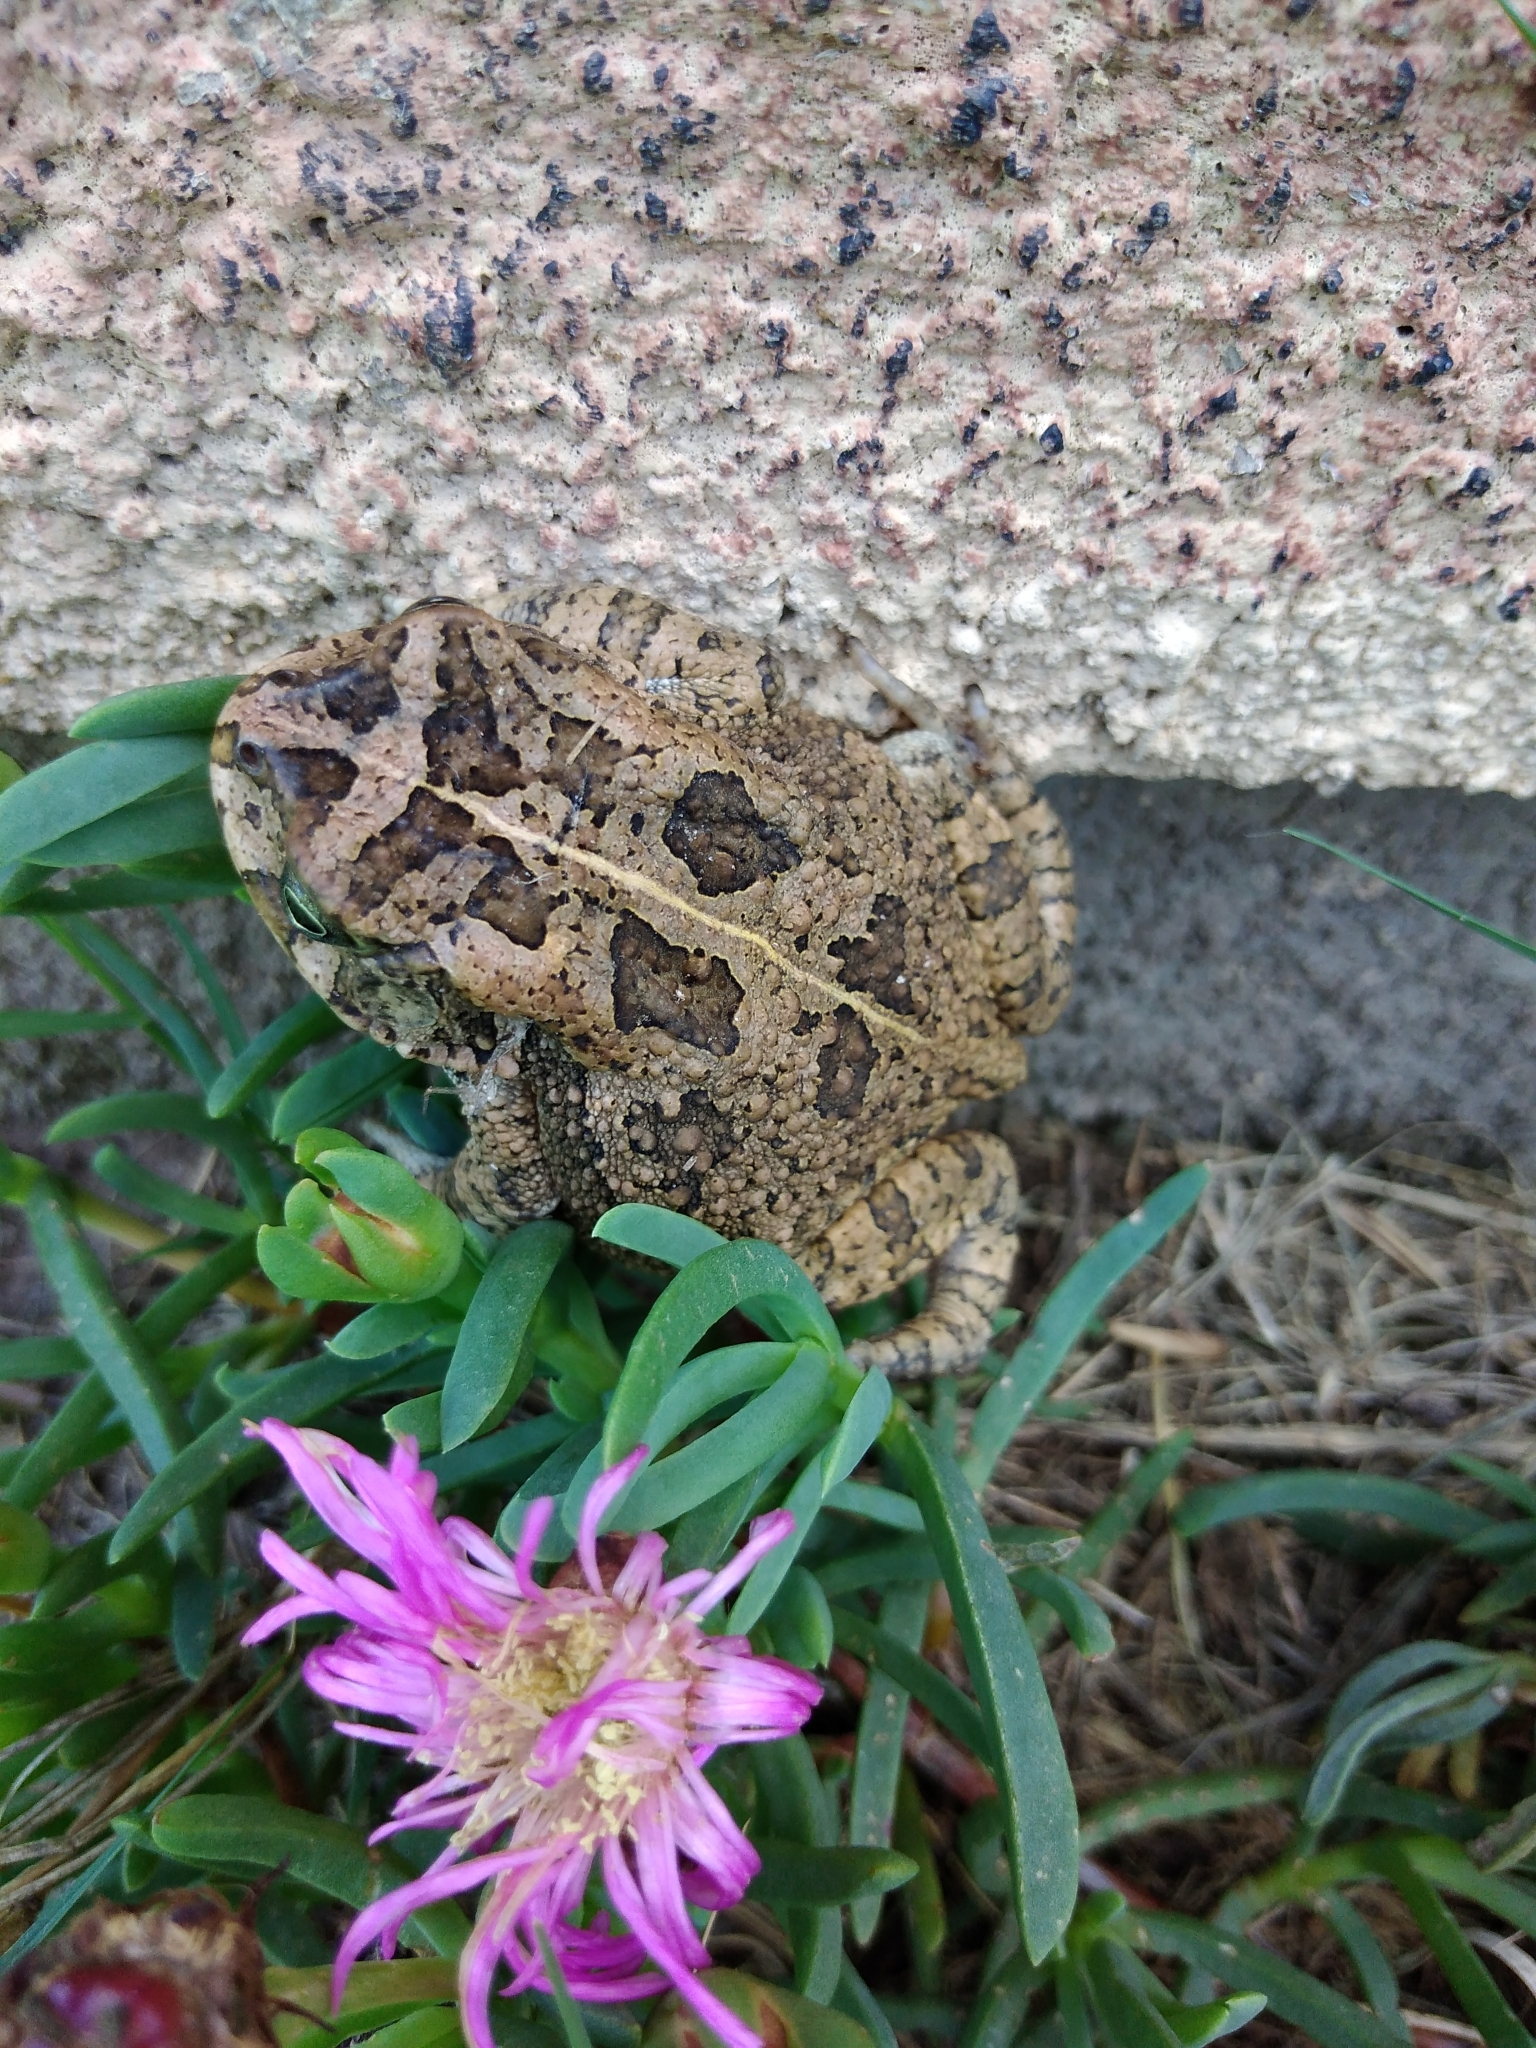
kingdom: Animalia
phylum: Chordata
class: Amphibia
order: Anura
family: Bufonidae
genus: Sclerophrys
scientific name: Sclerophrys gutturalis
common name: African common toad
